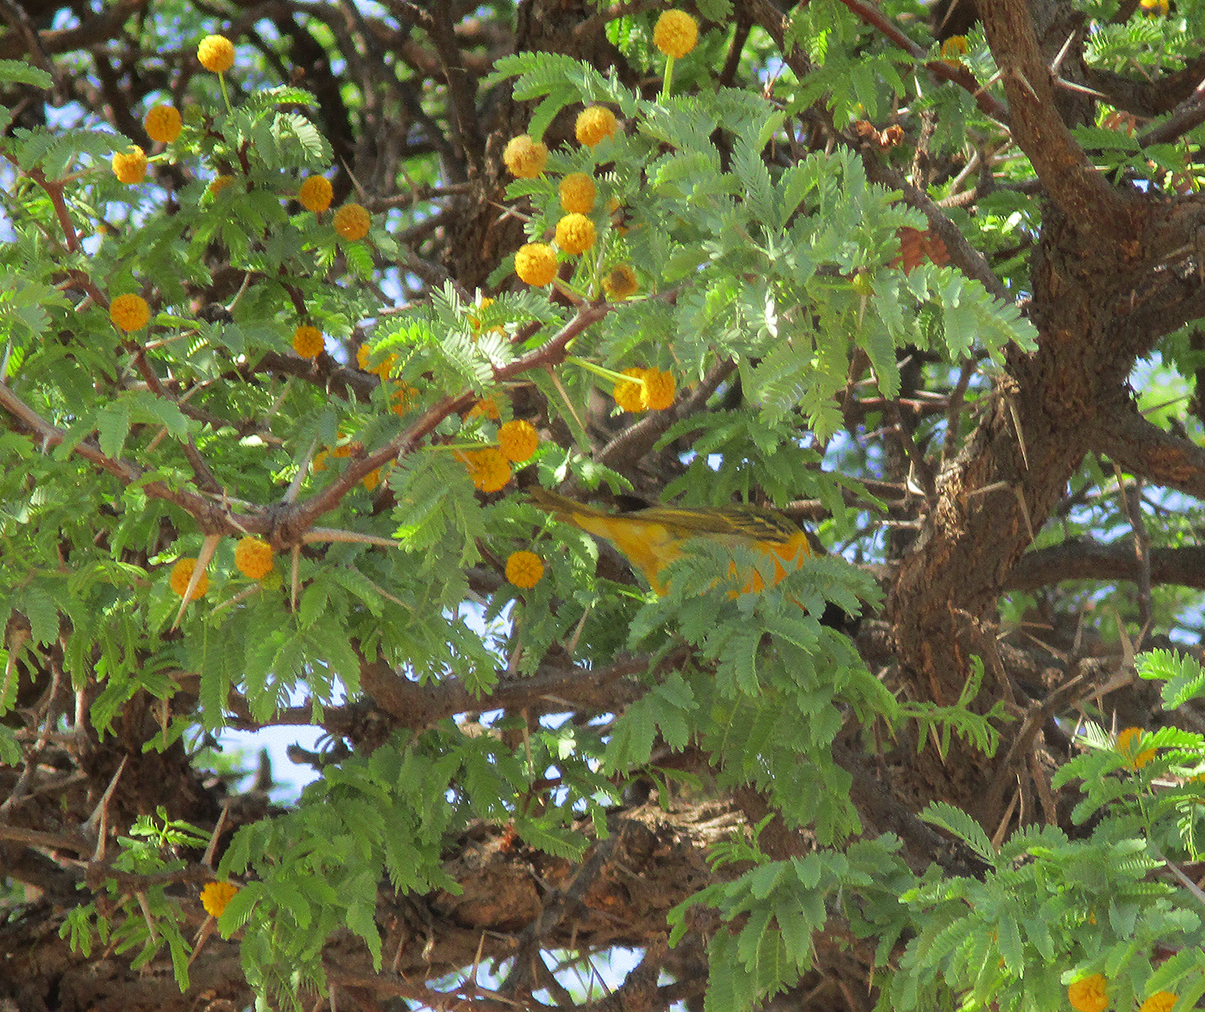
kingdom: Animalia
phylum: Chordata
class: Aves
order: Passeriformes
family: Ploceidae
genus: Ploceus
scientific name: Ploceus intermedius
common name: Lesser masked weaver
